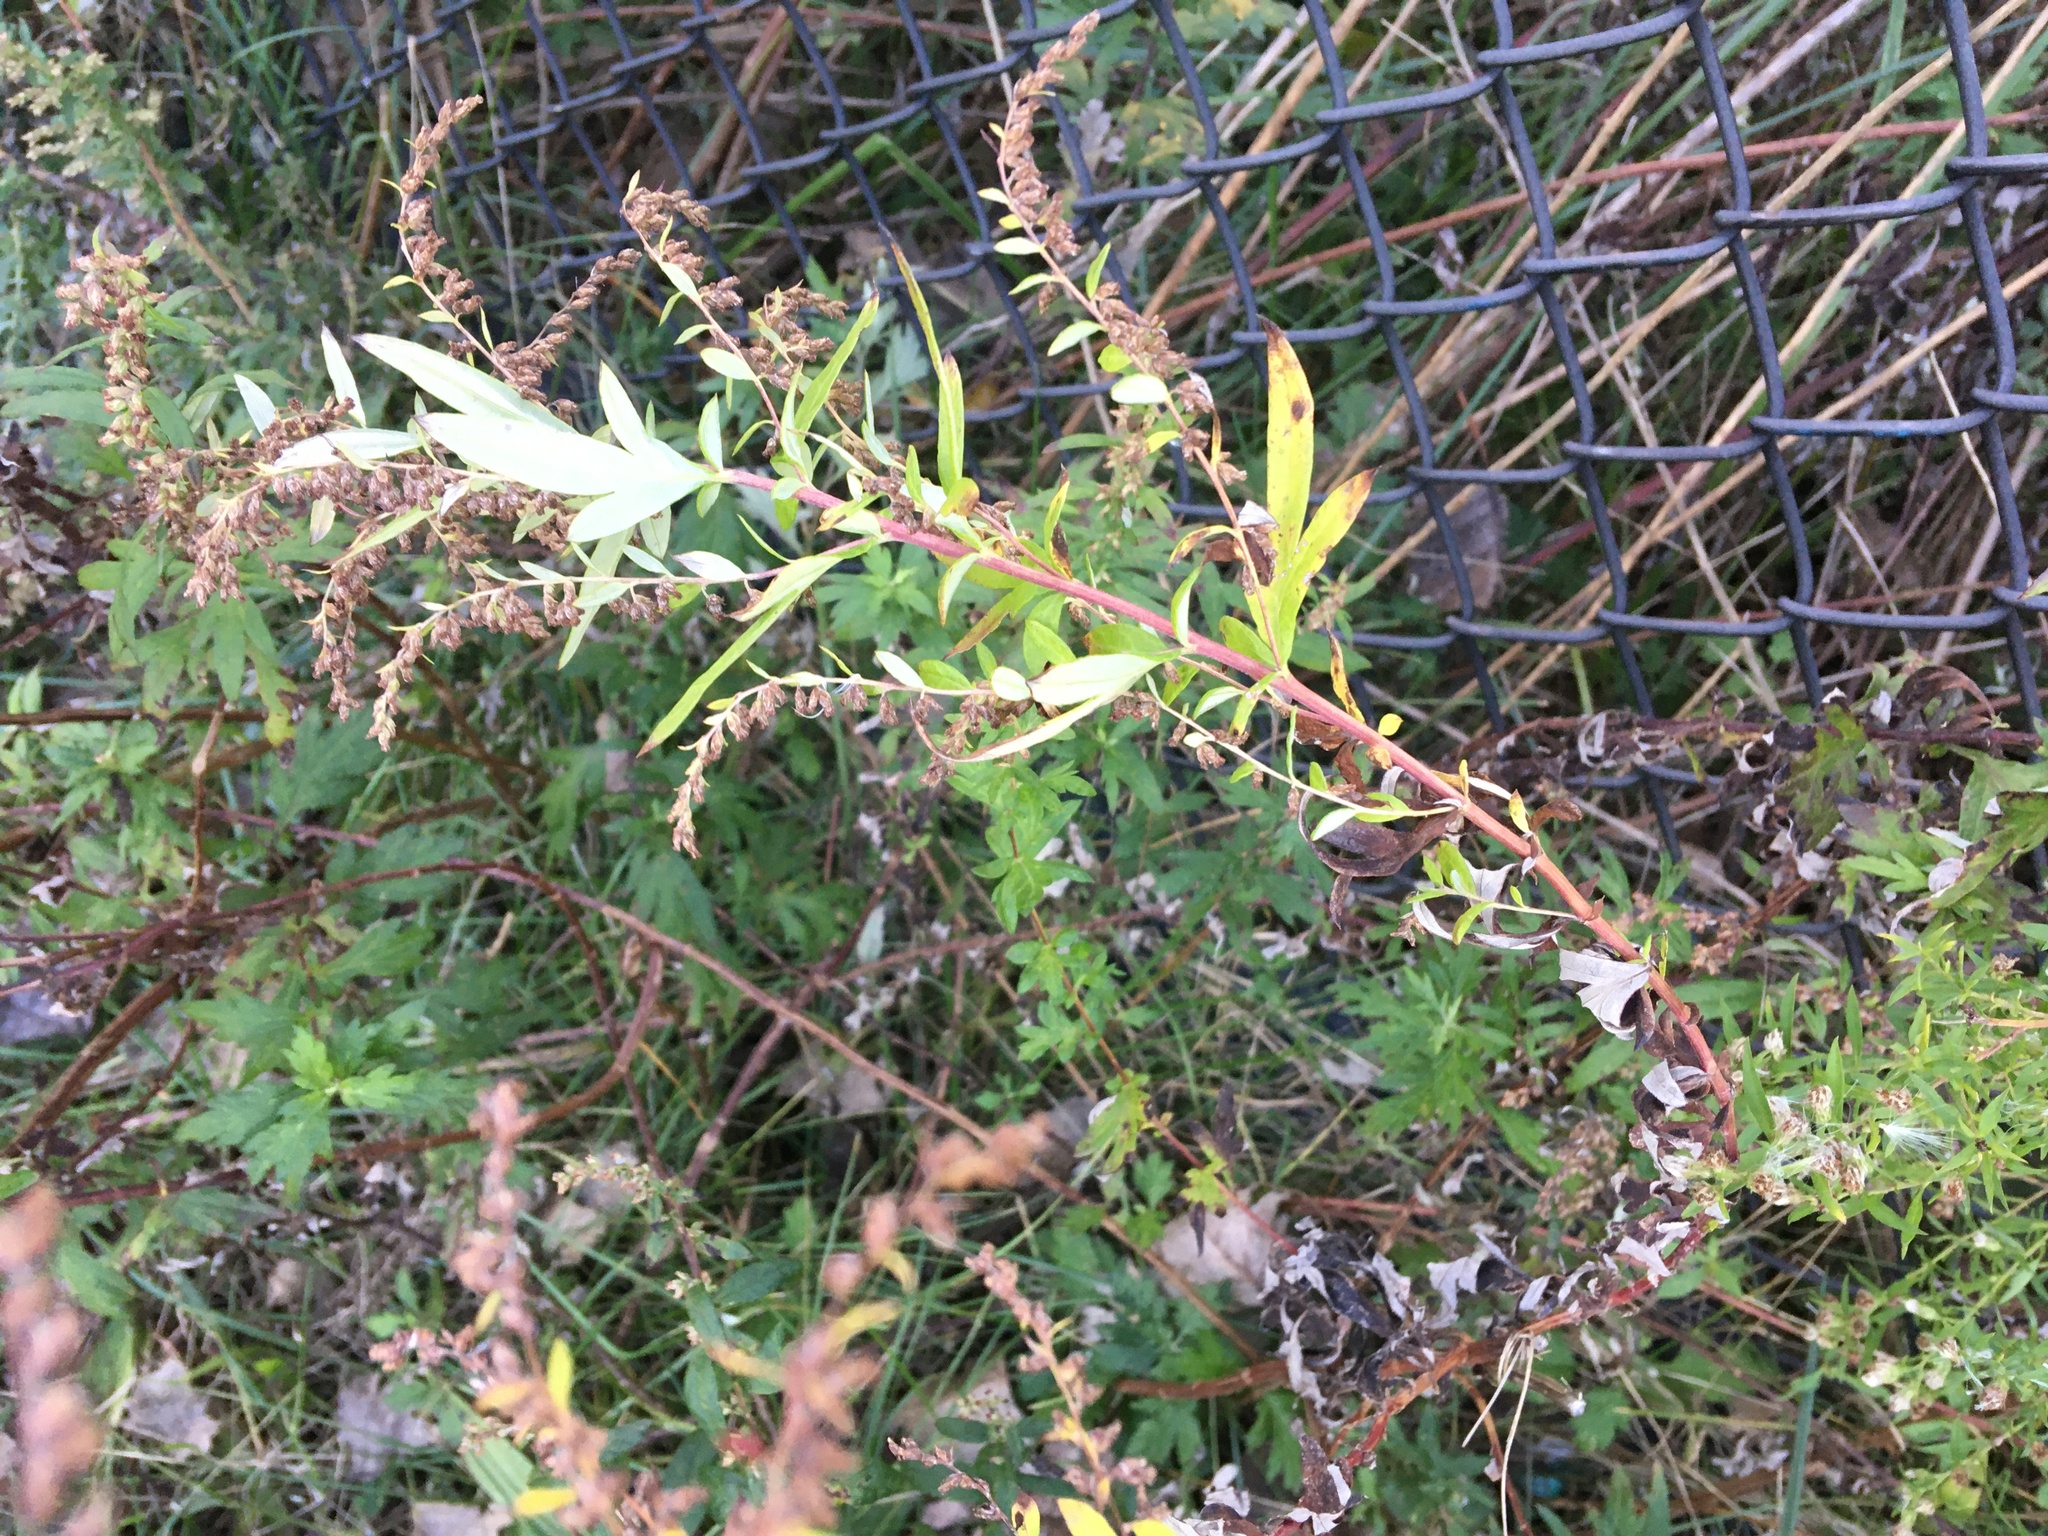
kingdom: Plantae
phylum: Tracheophyta
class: Magnoliopsida
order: Asterales
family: Asteraceae
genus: Artemisia
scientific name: Artemisia vulgaris
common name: Mugwort
